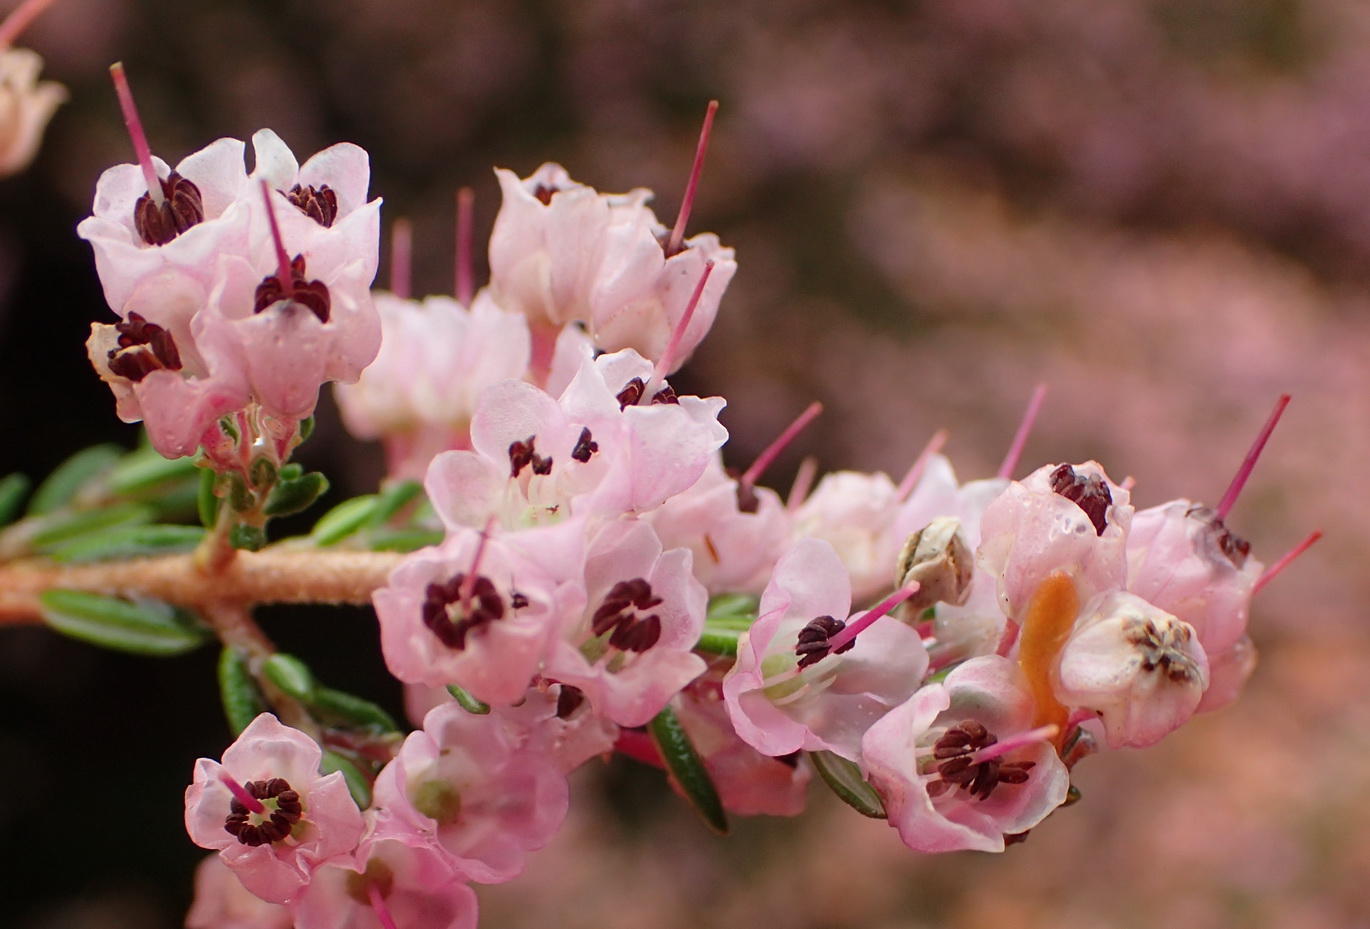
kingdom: Plantae
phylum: Tracheophyta
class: Magnoliopsida
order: Ericales
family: Ericaceae
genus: Erica
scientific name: Erica canaliculata
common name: Hairy grey heather
